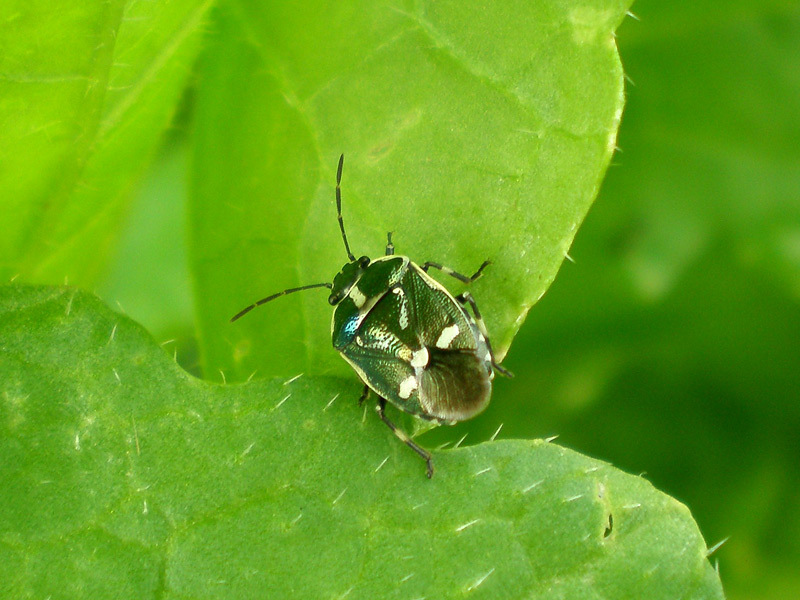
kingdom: Animalia
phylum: Arthropoda
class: Insecta
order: Hemiptera
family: Pentatomidae
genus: Eurydema
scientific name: Eurydema oleracea
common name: Cabbage bug
